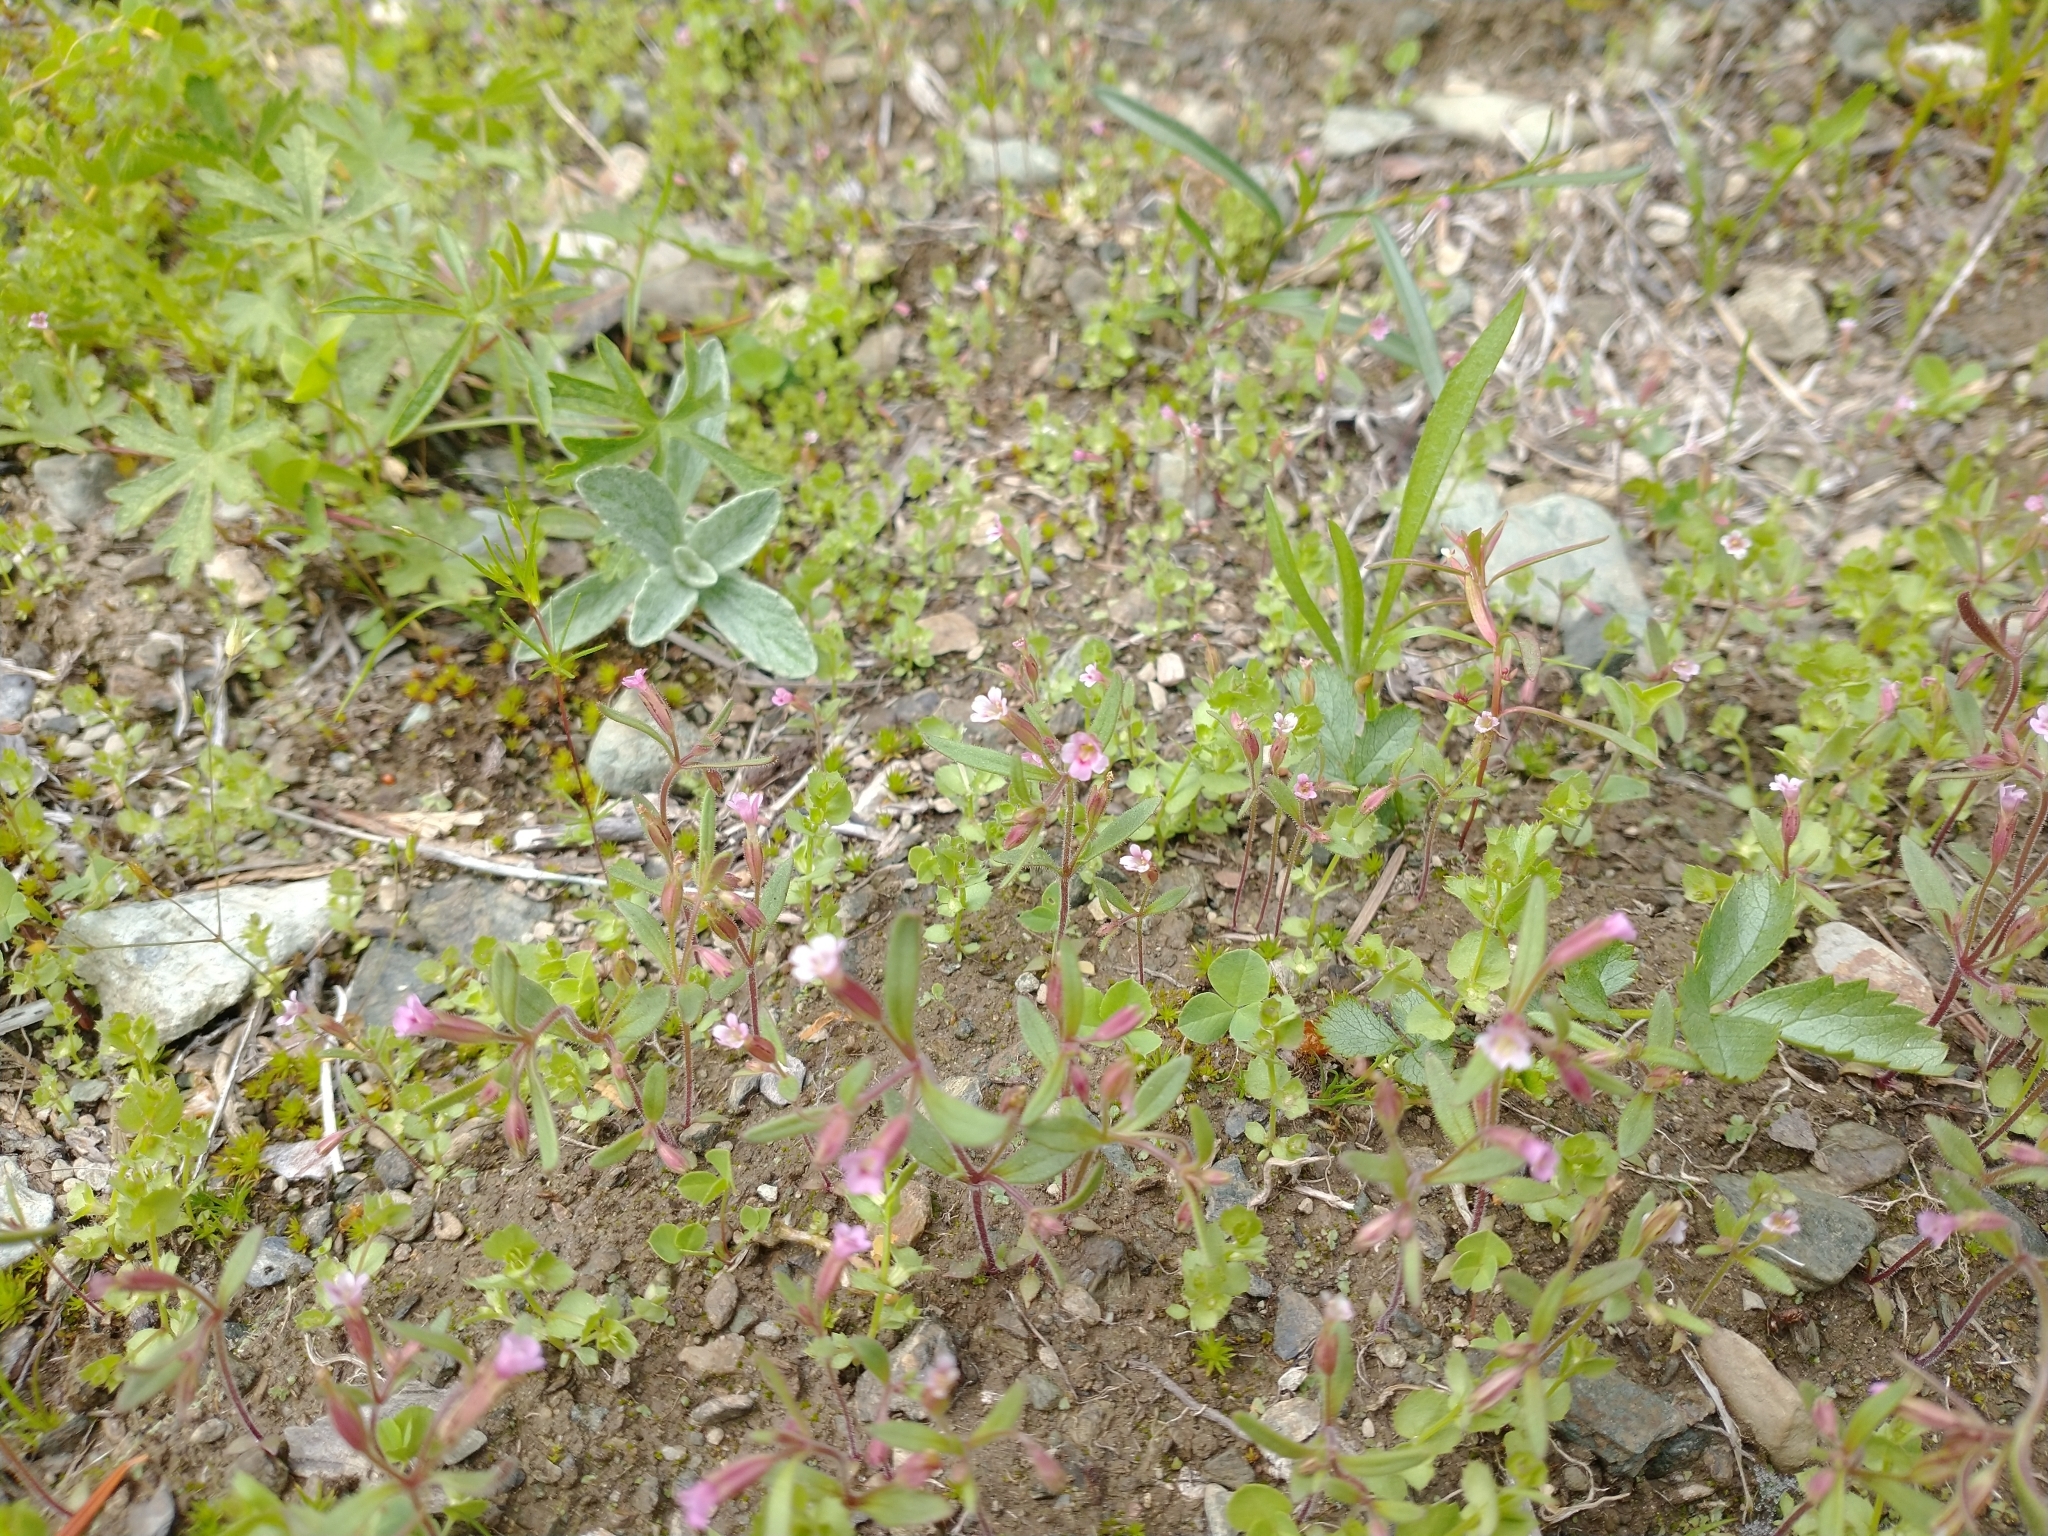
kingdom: Plantae
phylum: Tracheophyta
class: Magnoliopsida
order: Lamiales
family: Phrymaceae
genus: Erythranthe
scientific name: Erythranthe breweri
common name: Brewer's monkeyflower
